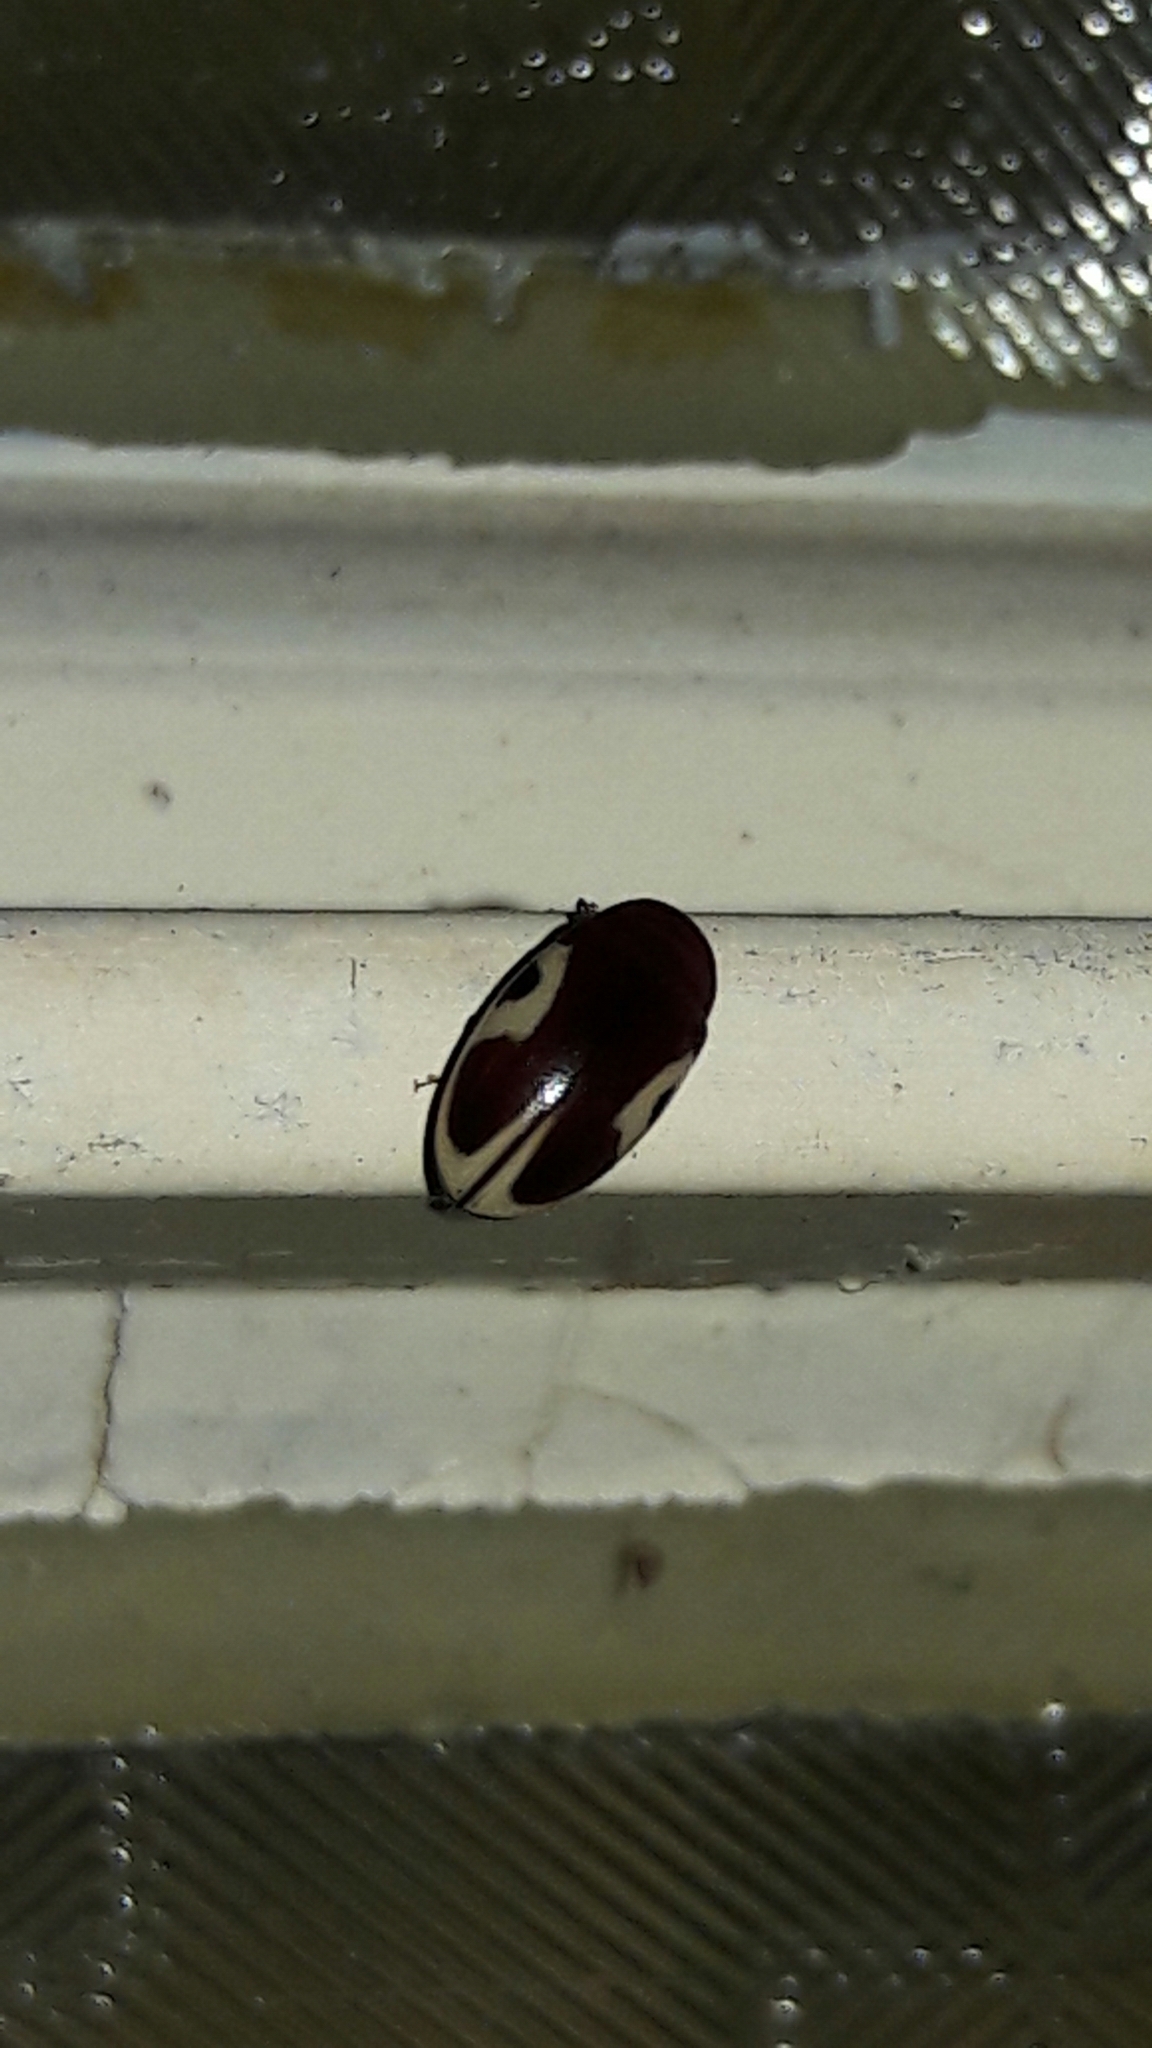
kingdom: Animalia
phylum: Arthropoda
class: Insecta
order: Coleoptera
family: Chelonariidae
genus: Chelonarium
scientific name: Chelonarium
